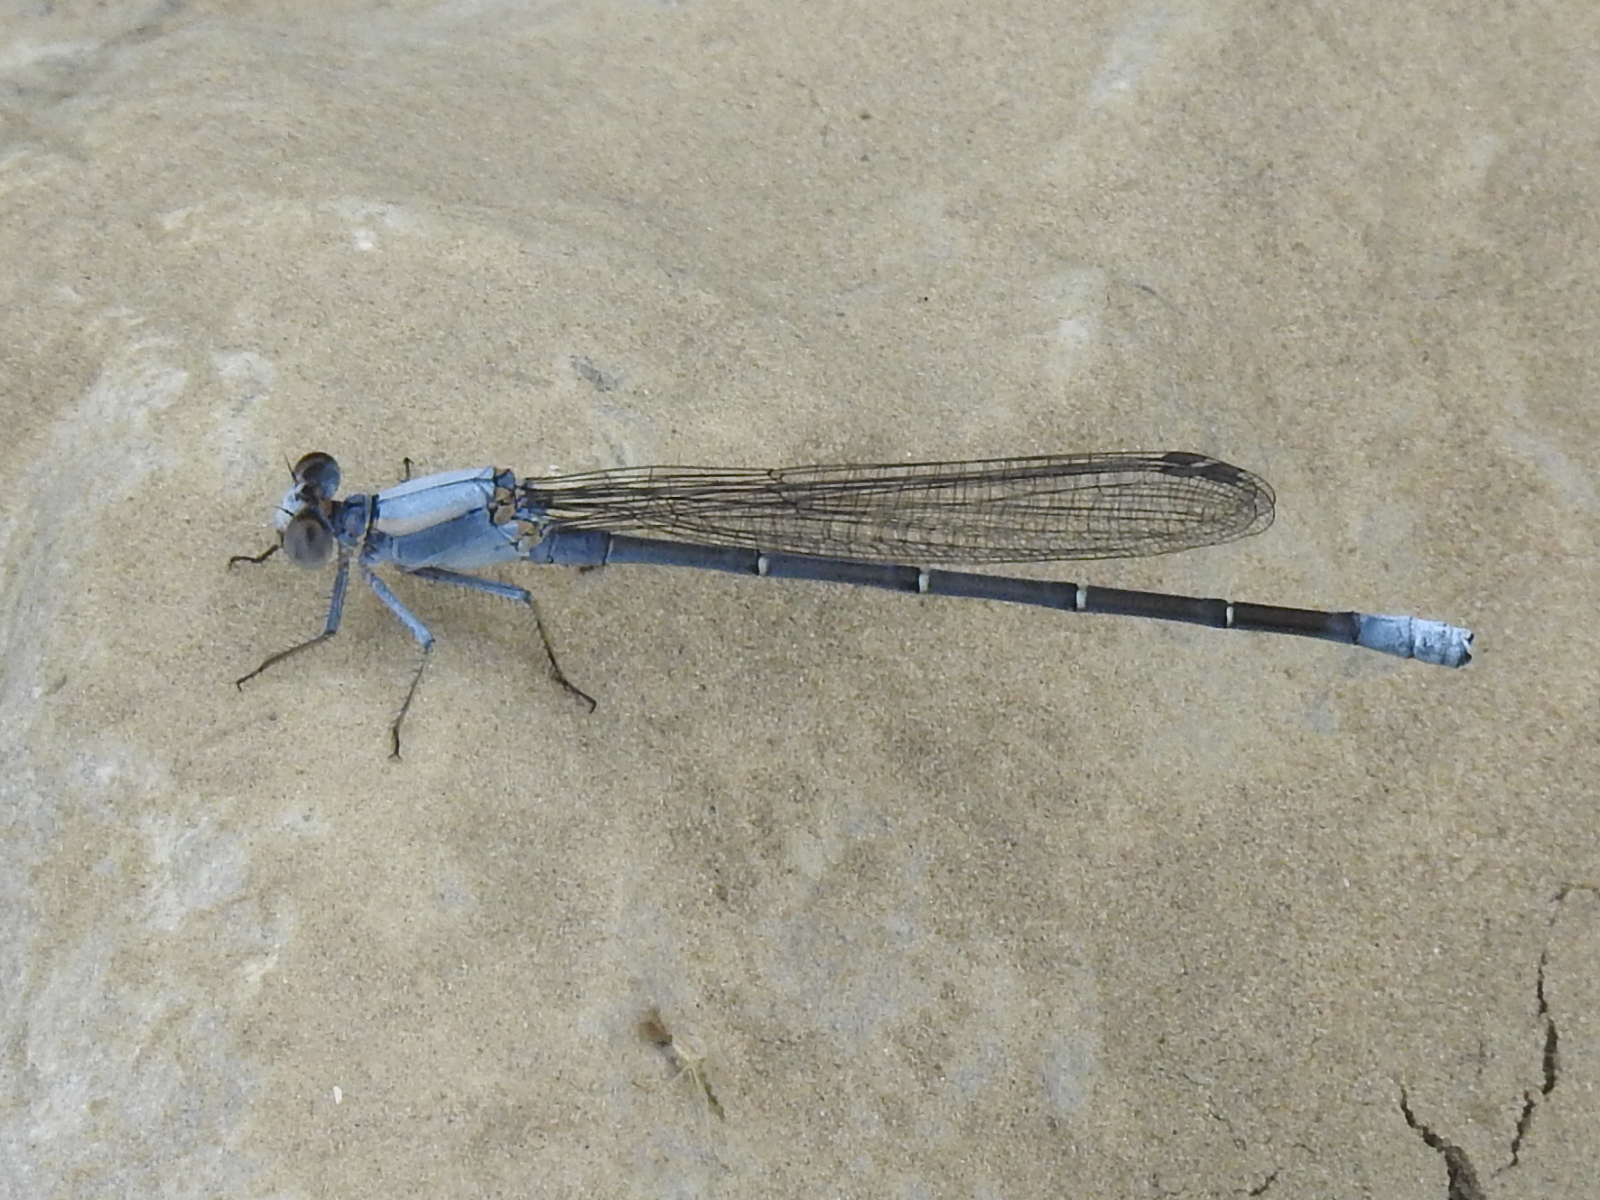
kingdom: Animalia
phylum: Arthropoda
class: Insecta
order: Odonata
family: Coenagrionidae
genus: Argia
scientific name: Argia moesta
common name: Powdered dancer
